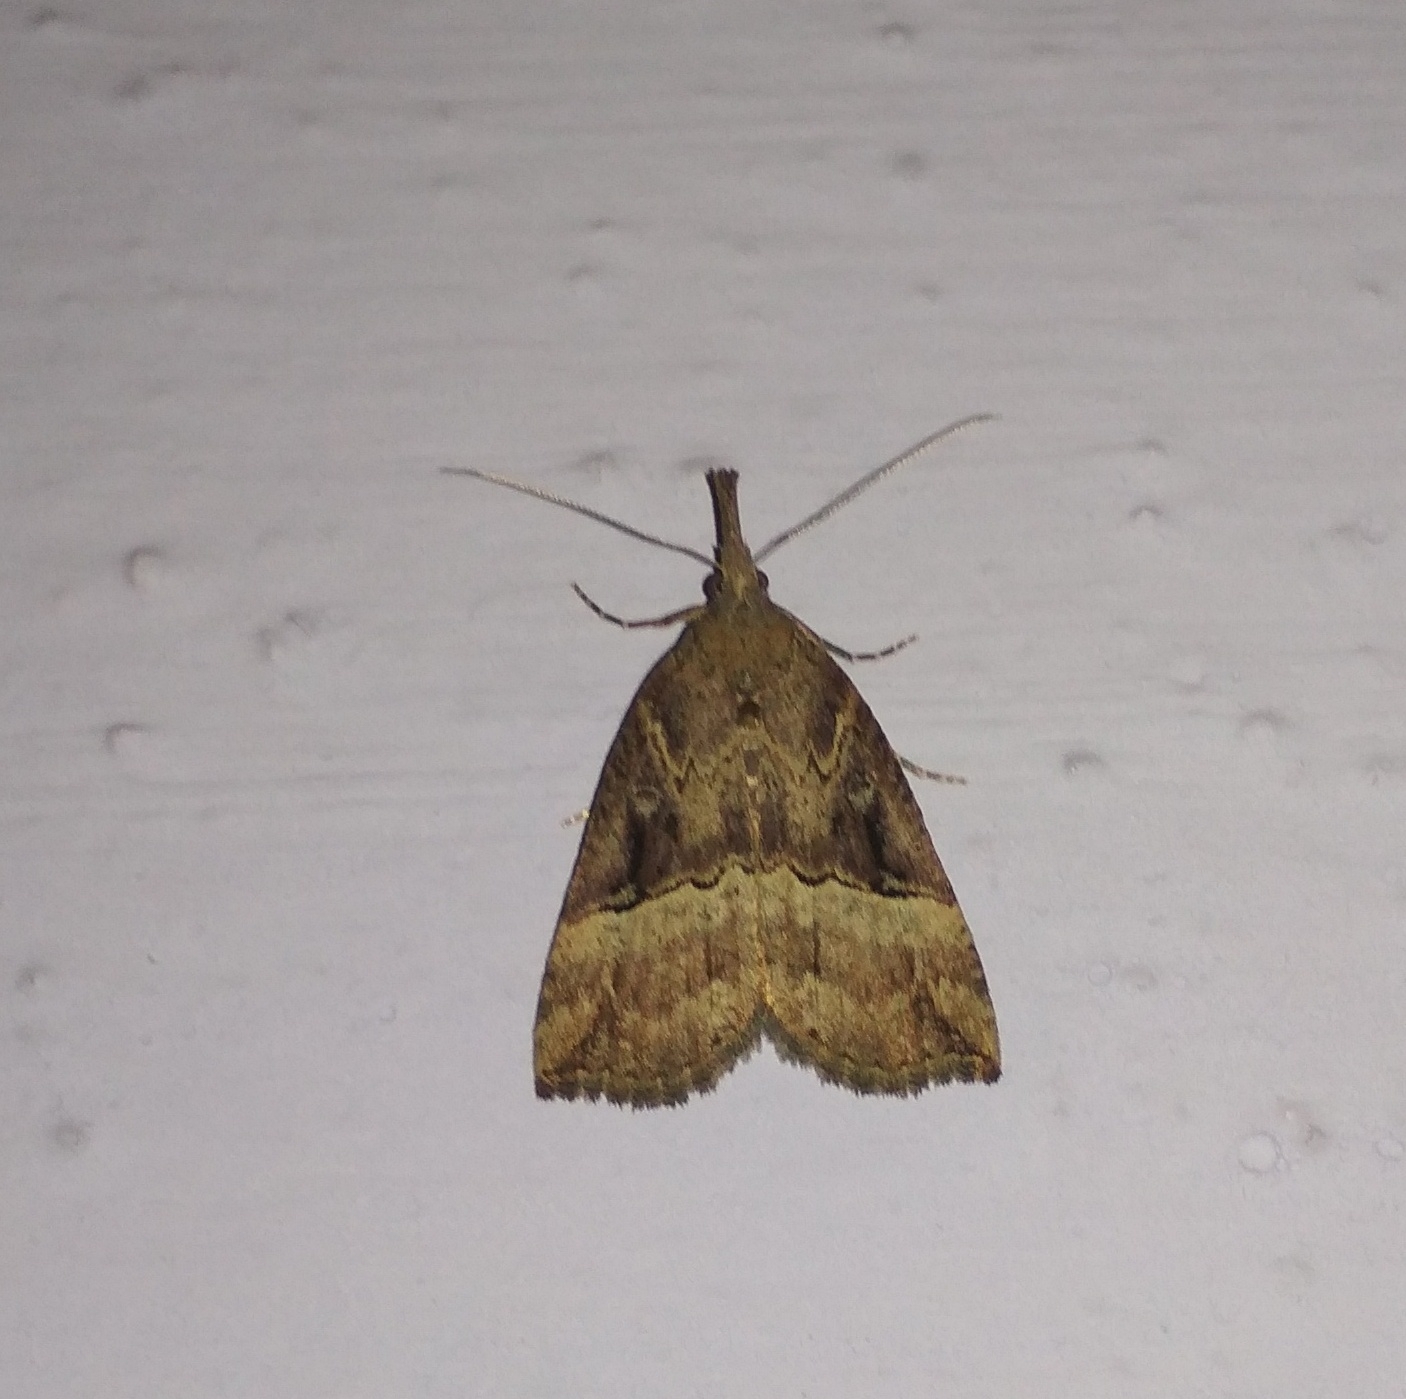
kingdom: Animalia
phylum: Arthropoda
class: Insecta
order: Lepidoptera
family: Erebidae
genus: Hypena
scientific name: Hypena rostralis
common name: Buttoned snout
